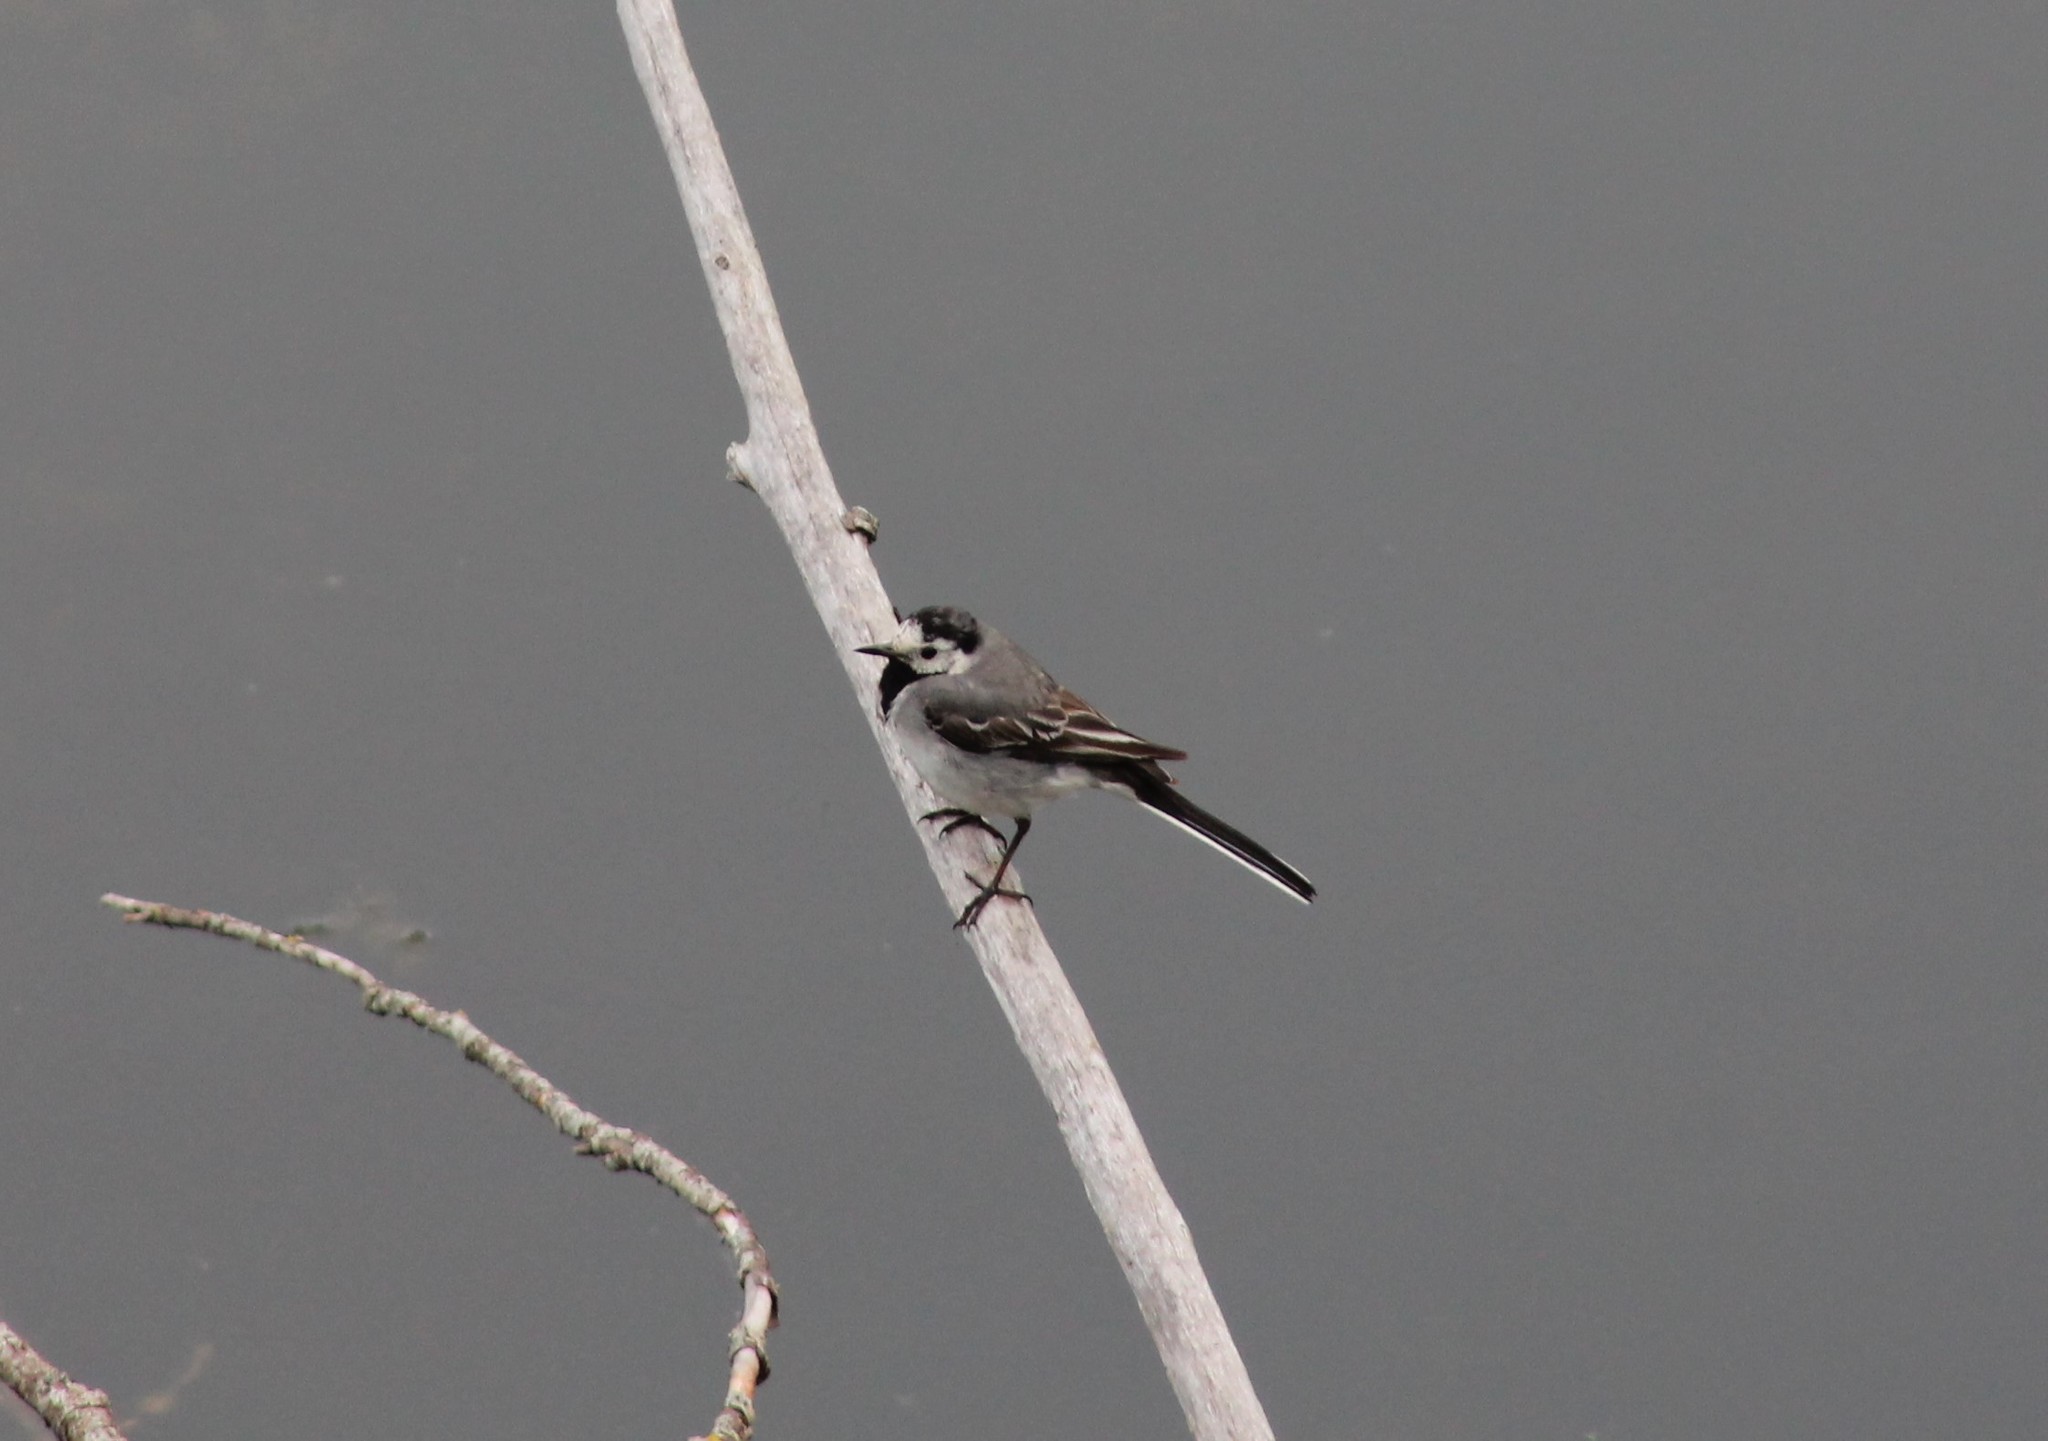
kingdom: Animalia
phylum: Chordata
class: Aves
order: Passeriformes
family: Motacillidae
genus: Motacilla
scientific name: Motacilla alba
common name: White wagtail
